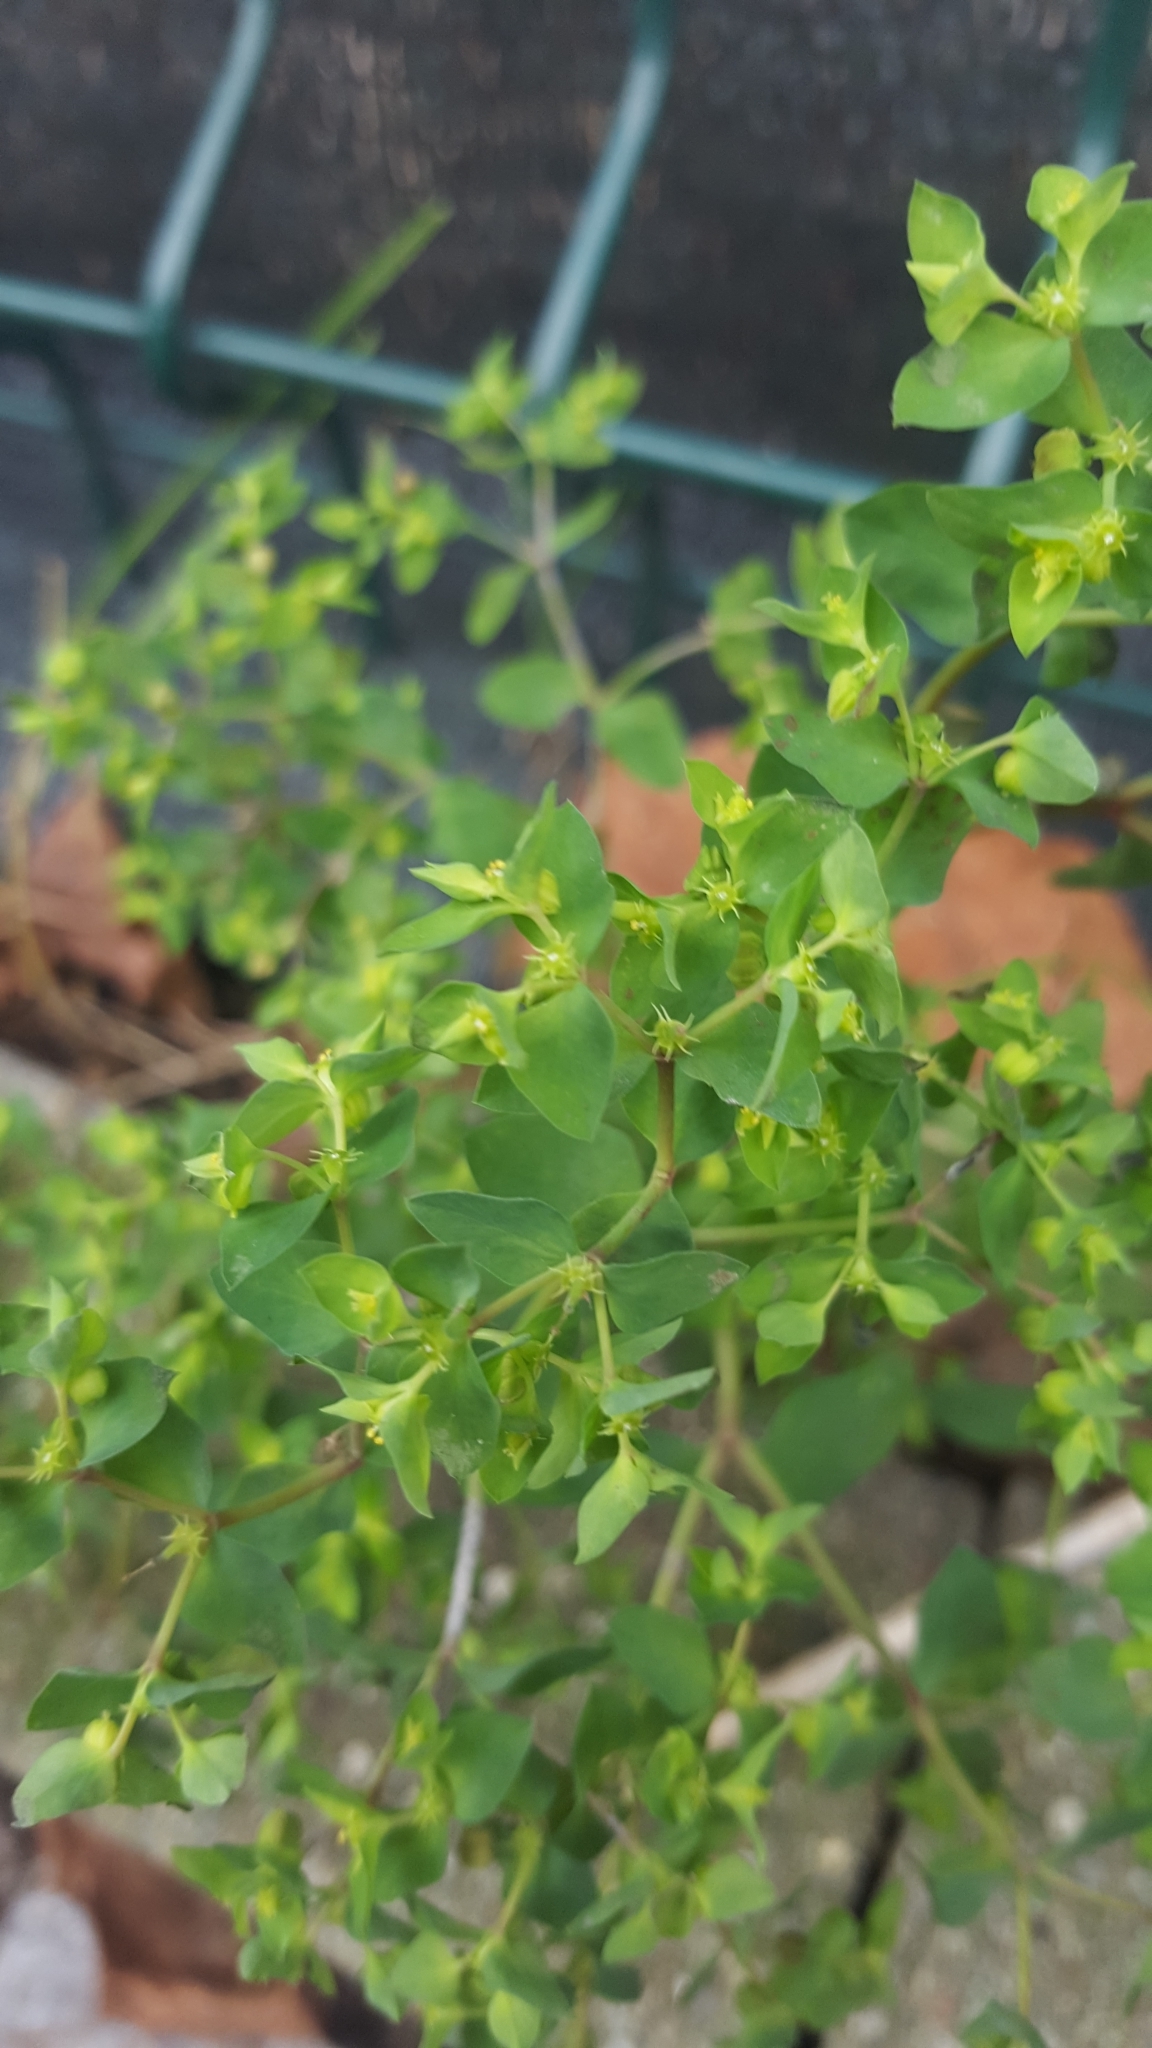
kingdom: Plantae
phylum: Tracheophyta
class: Magnoliopsida
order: Malpighiales
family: Euphorbiaceae
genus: Euphorbia
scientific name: Euphorbia peplus
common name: Petty spurge
